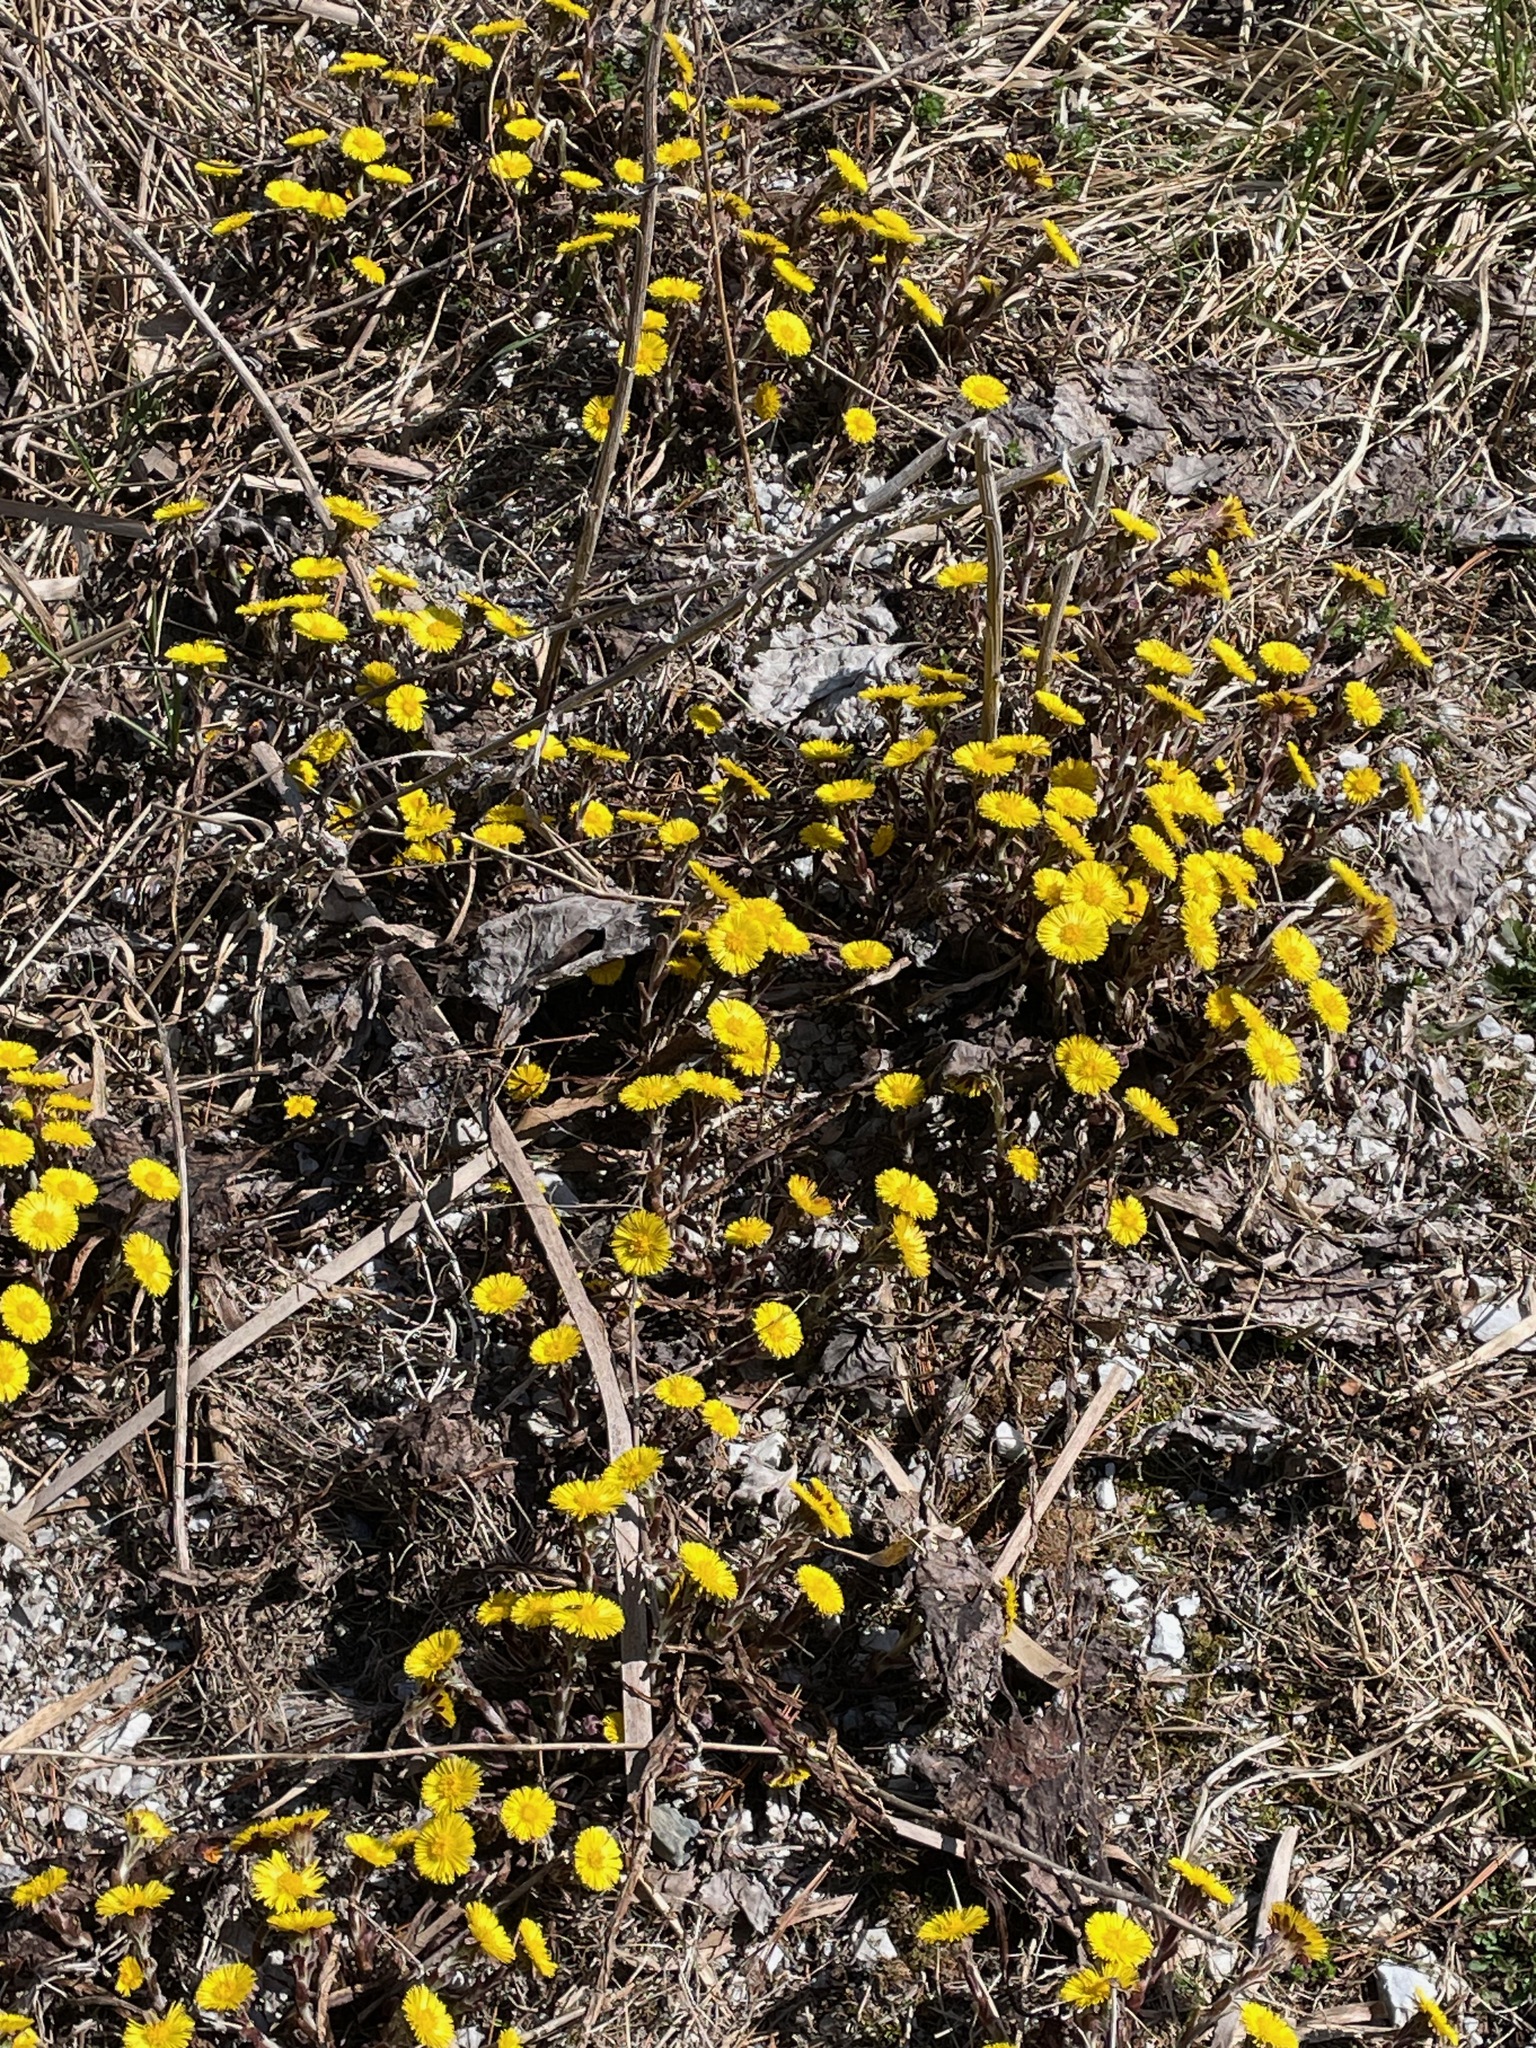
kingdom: Plantae
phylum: Tracheophyta
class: Magnoliopsida
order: Asterales
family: Asteraceae
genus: Tussilago
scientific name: Tussilago farfara
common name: Coltsfoot
